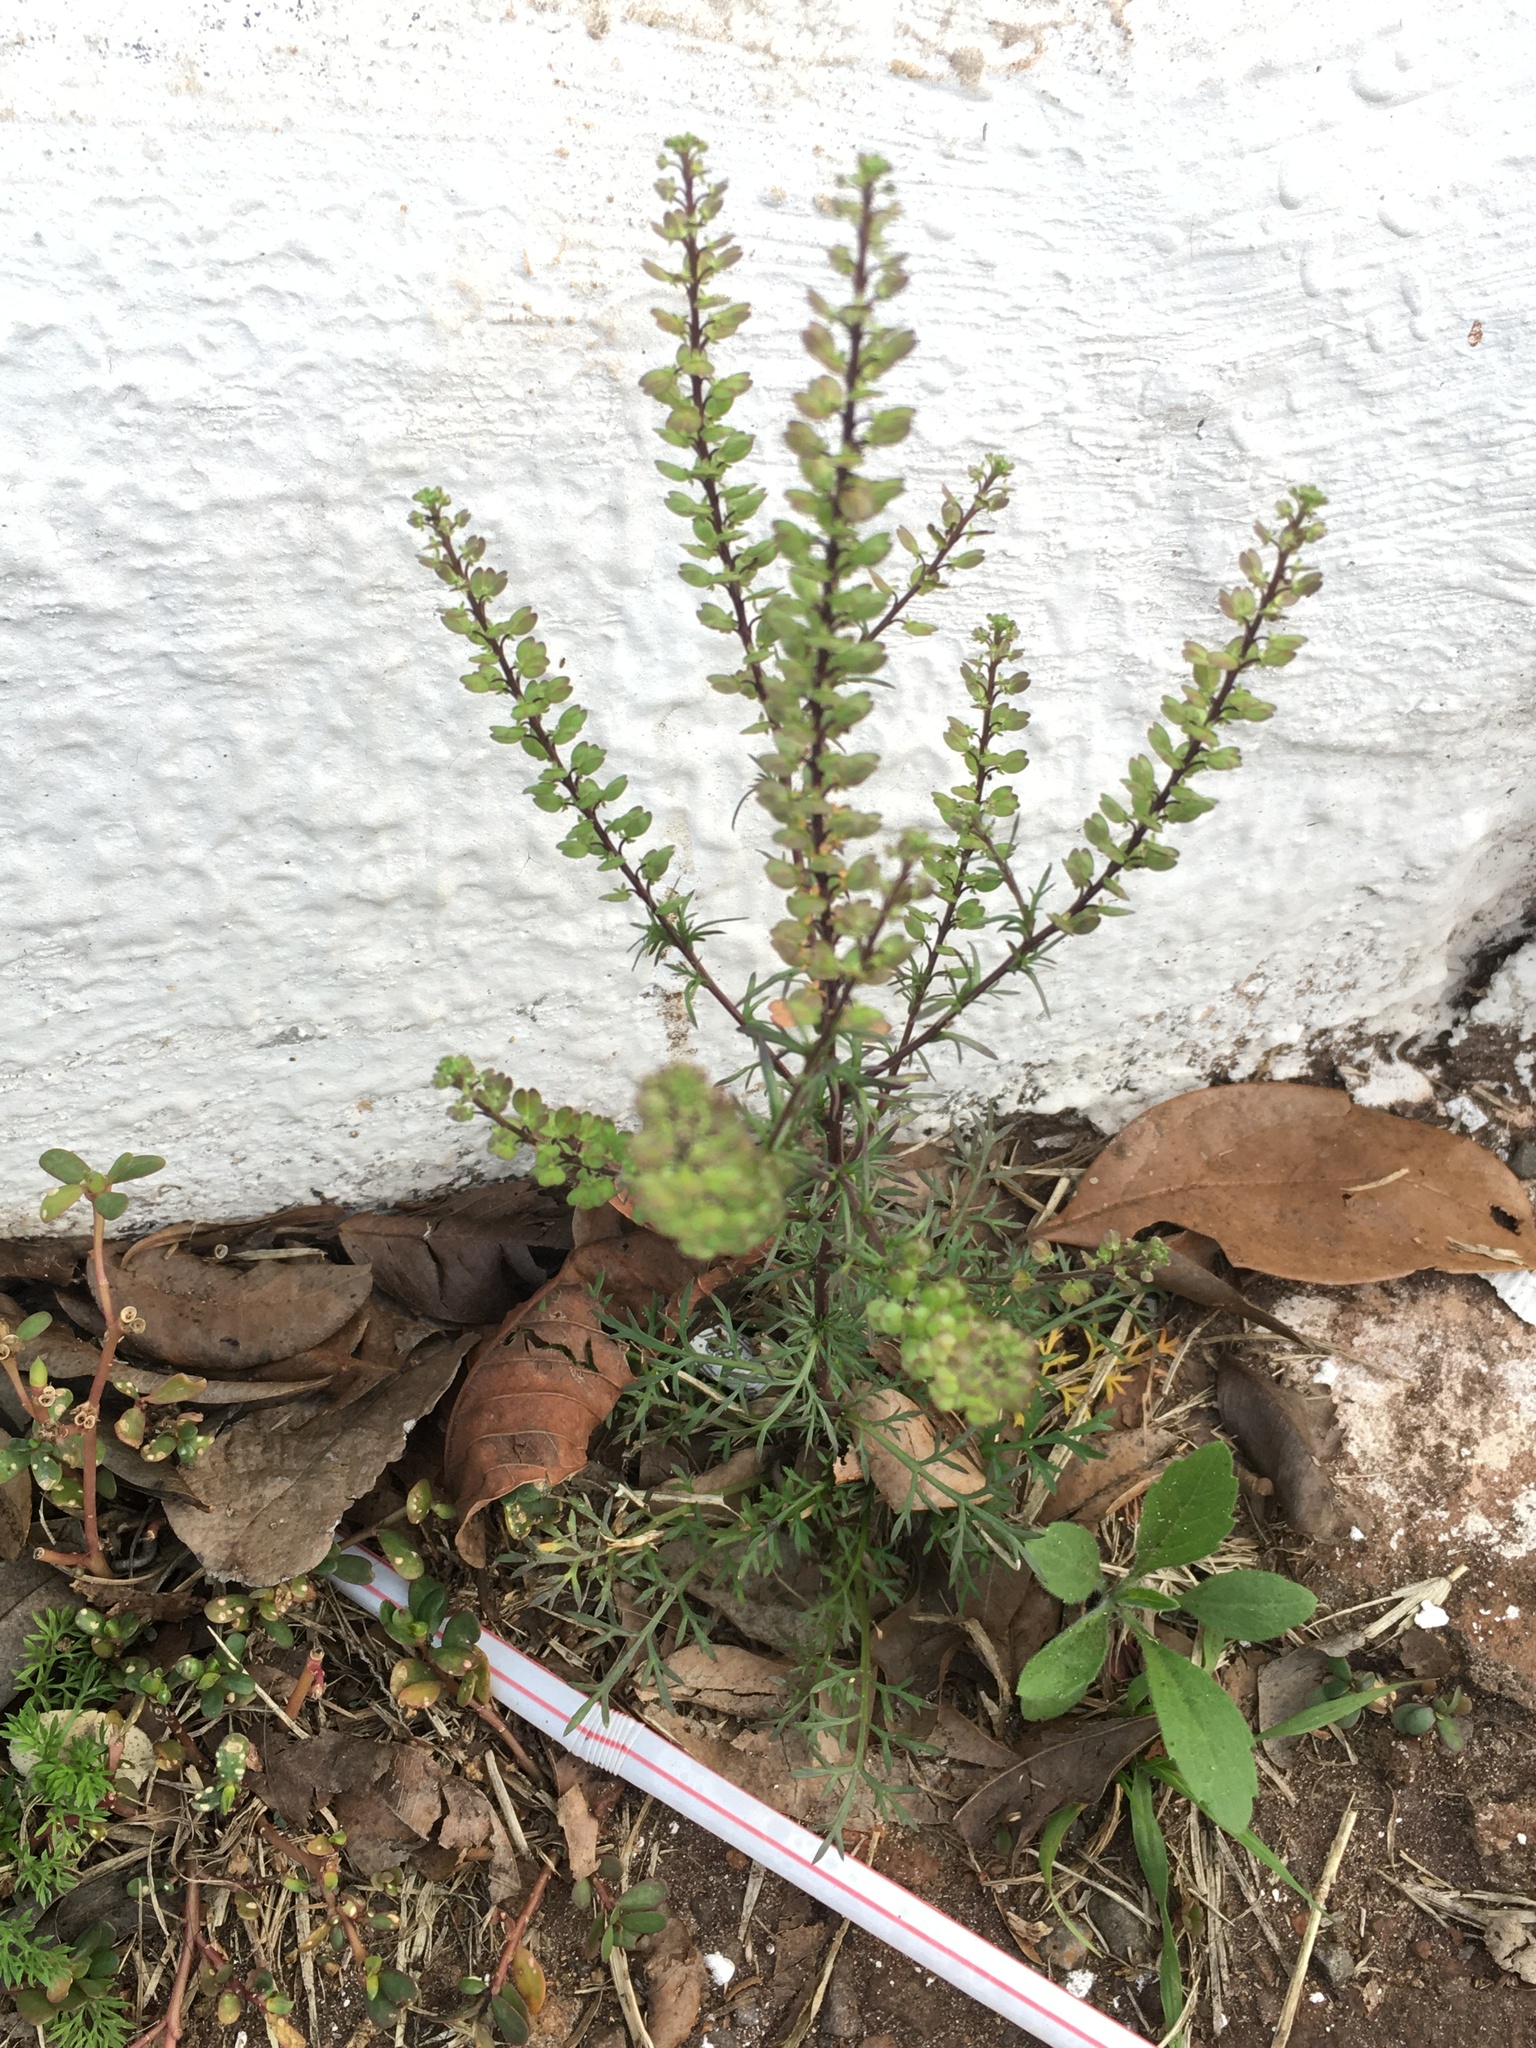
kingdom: Plantae
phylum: Tracheophyta
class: Magnoliopsida
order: Brassicales
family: Brassicaceae
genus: Lepidium
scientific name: Lepidium auriculatum
